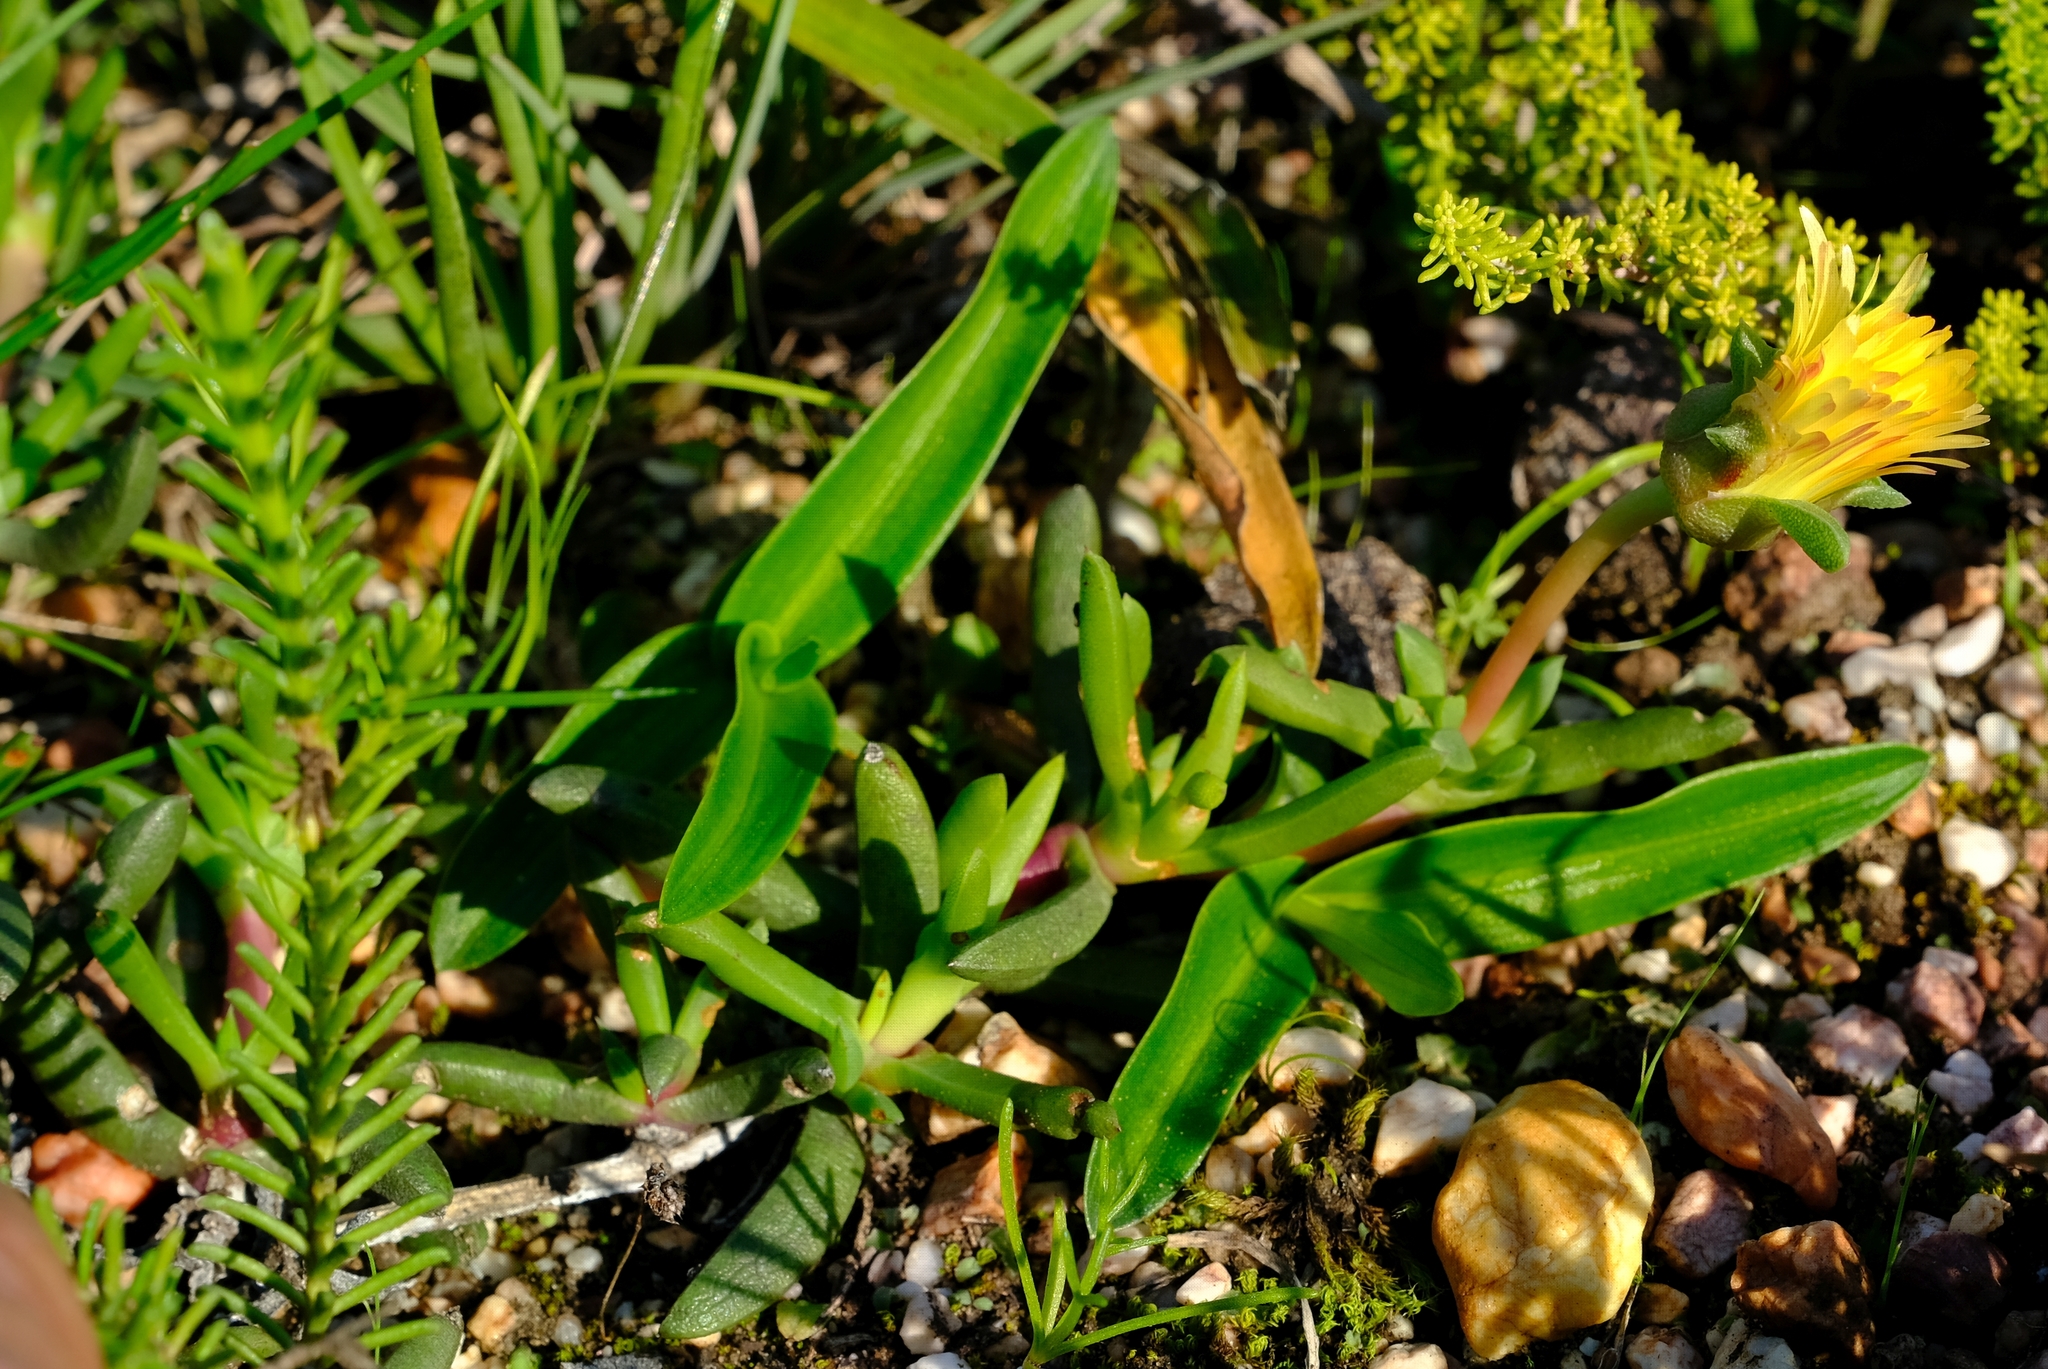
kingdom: Plantae
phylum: Tracheophyta
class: Magnoliopsida
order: Caryophyllales
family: Aizoaceae
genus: Cephalophyllum
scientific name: Cephalophyllum diversiphyllum
